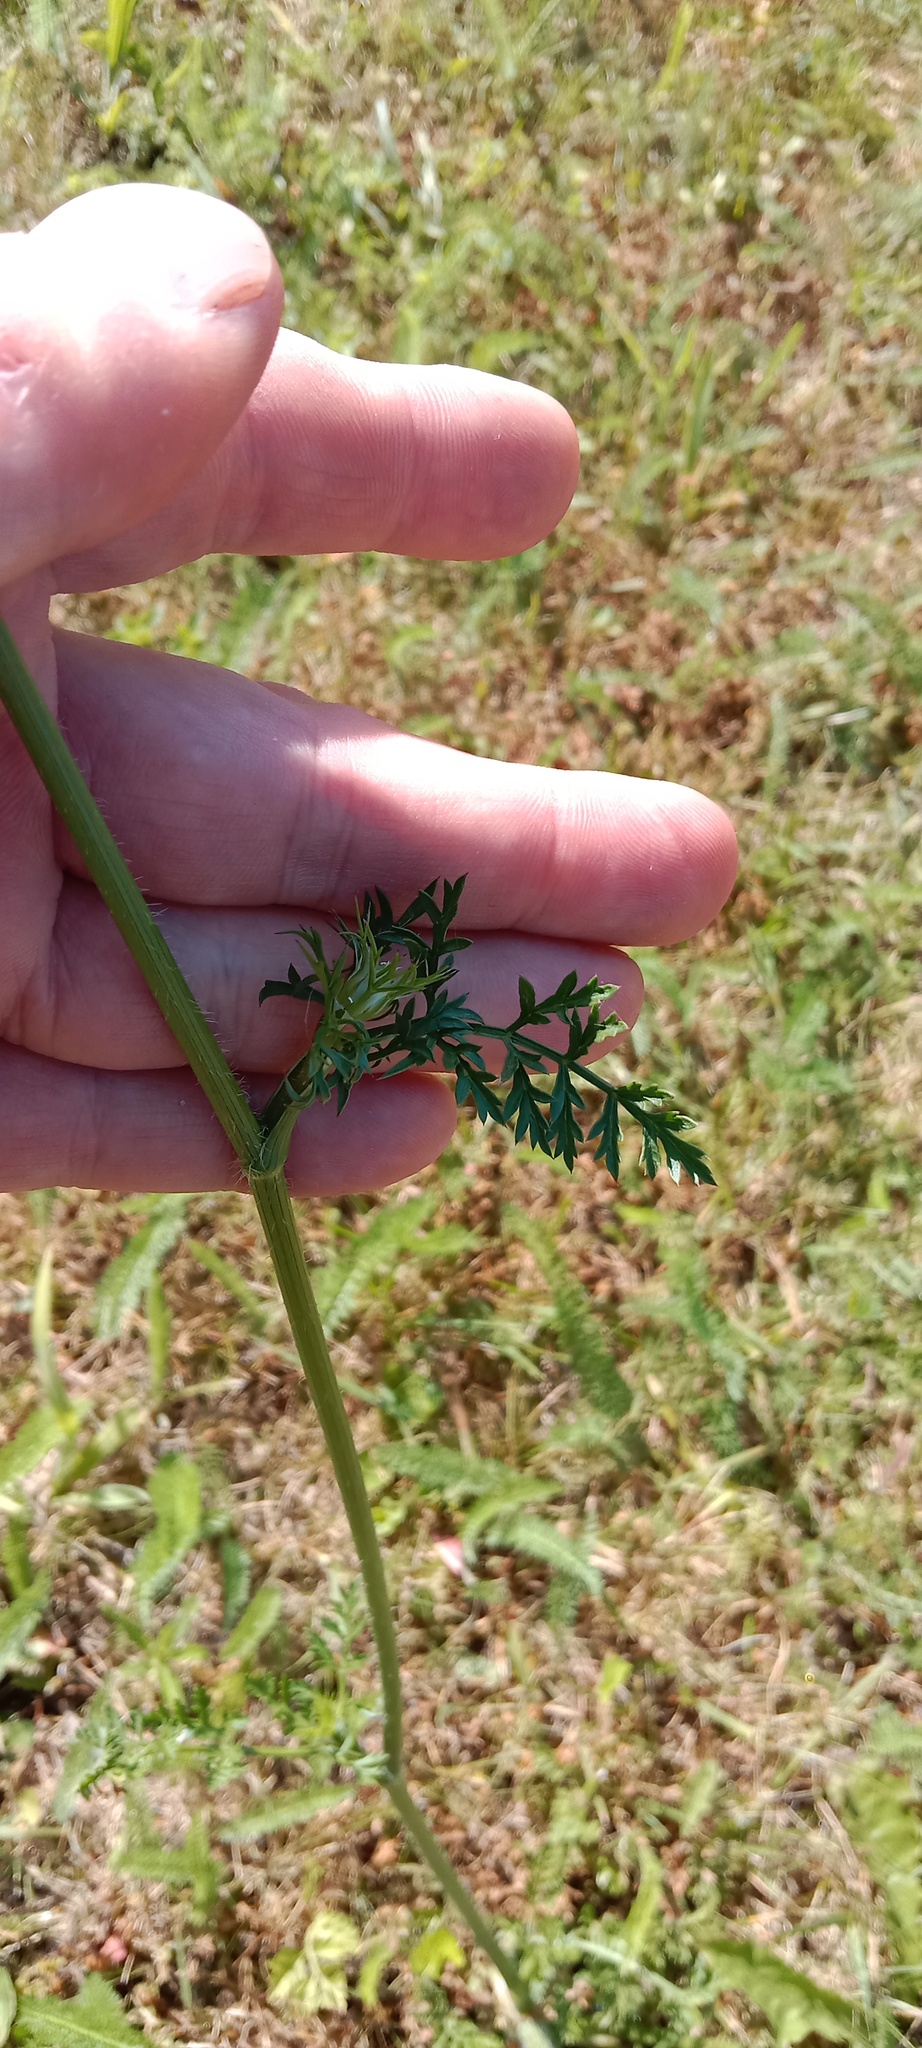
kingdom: Plantae
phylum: Tracheophyta
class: Magnoliopsida
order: Apiales
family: Apiaceae
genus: Daucus
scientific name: Daucus carota
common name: Wild carrot
